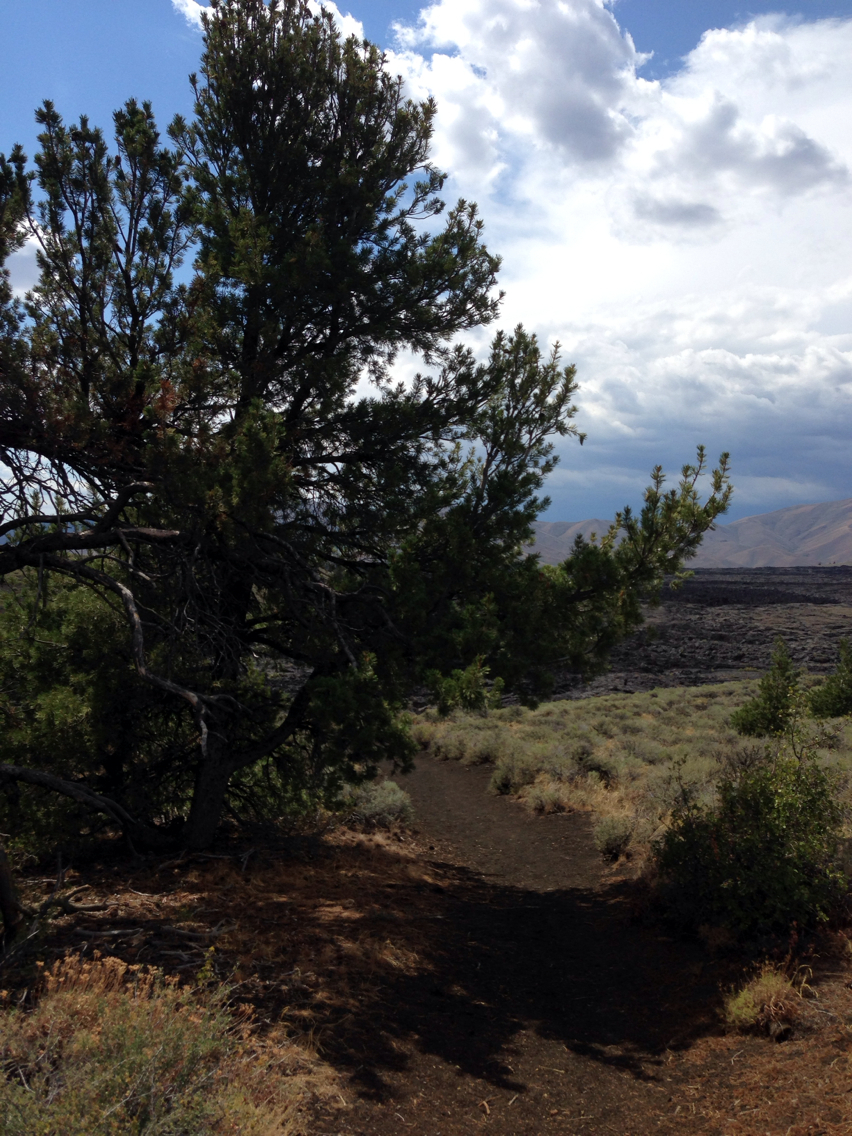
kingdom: Plantae
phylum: Tracheophyta
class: Pinopsida
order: Pinales
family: Pinaceae
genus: Pinus
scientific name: Pinus flexilis
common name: Limber pine
